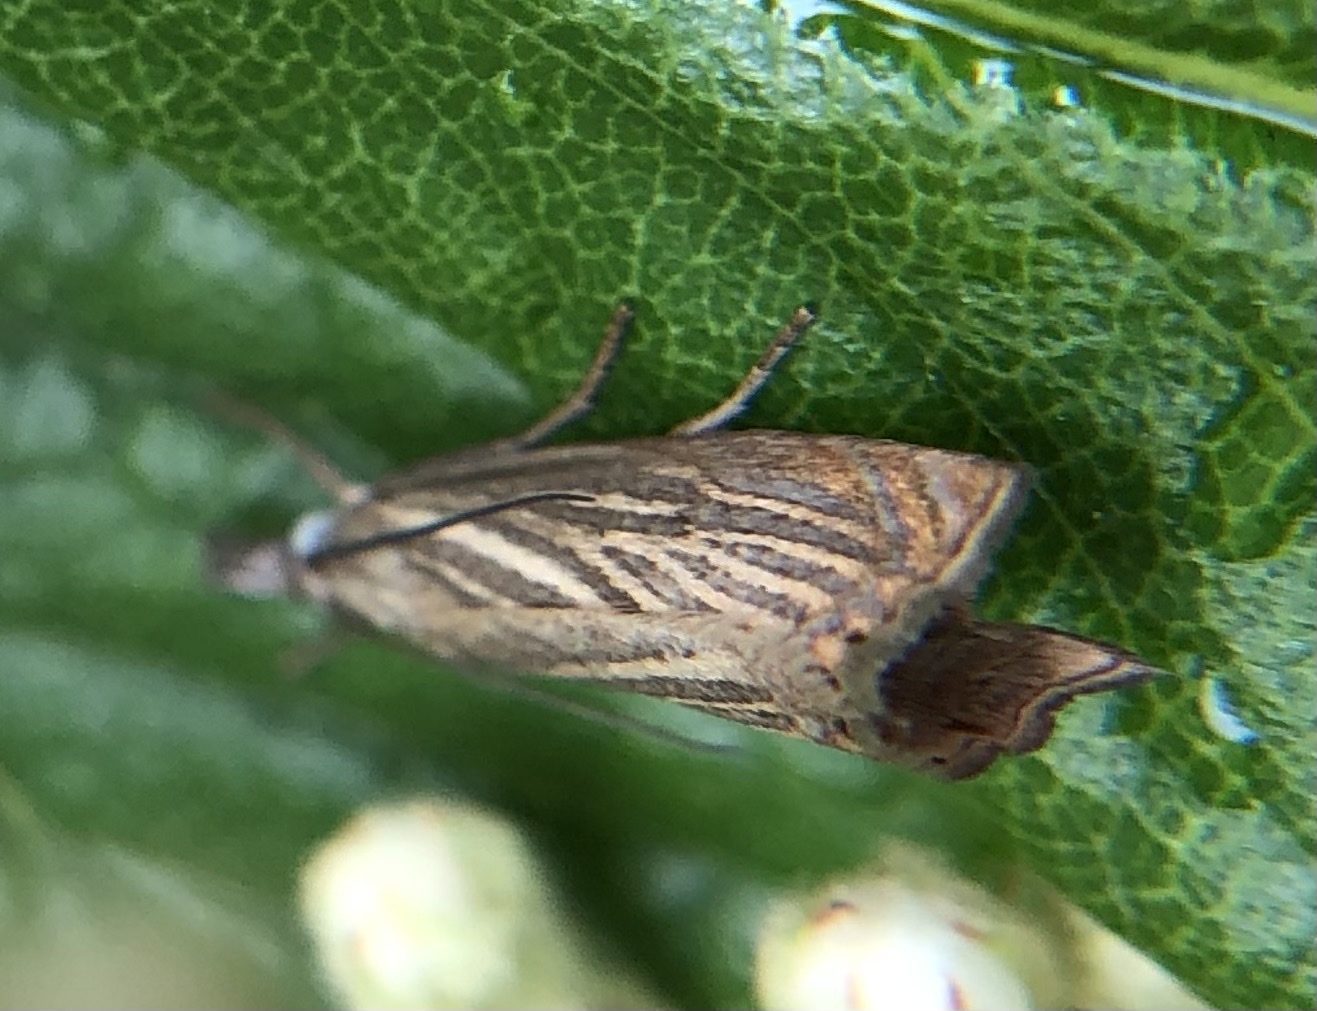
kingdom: Animalia
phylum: Arthropoda
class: Insecta
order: Lepidoptera
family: Crambidae
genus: Chrysoteuchia
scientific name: Chrysoteuchia culmella
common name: Garden grass-veneer
